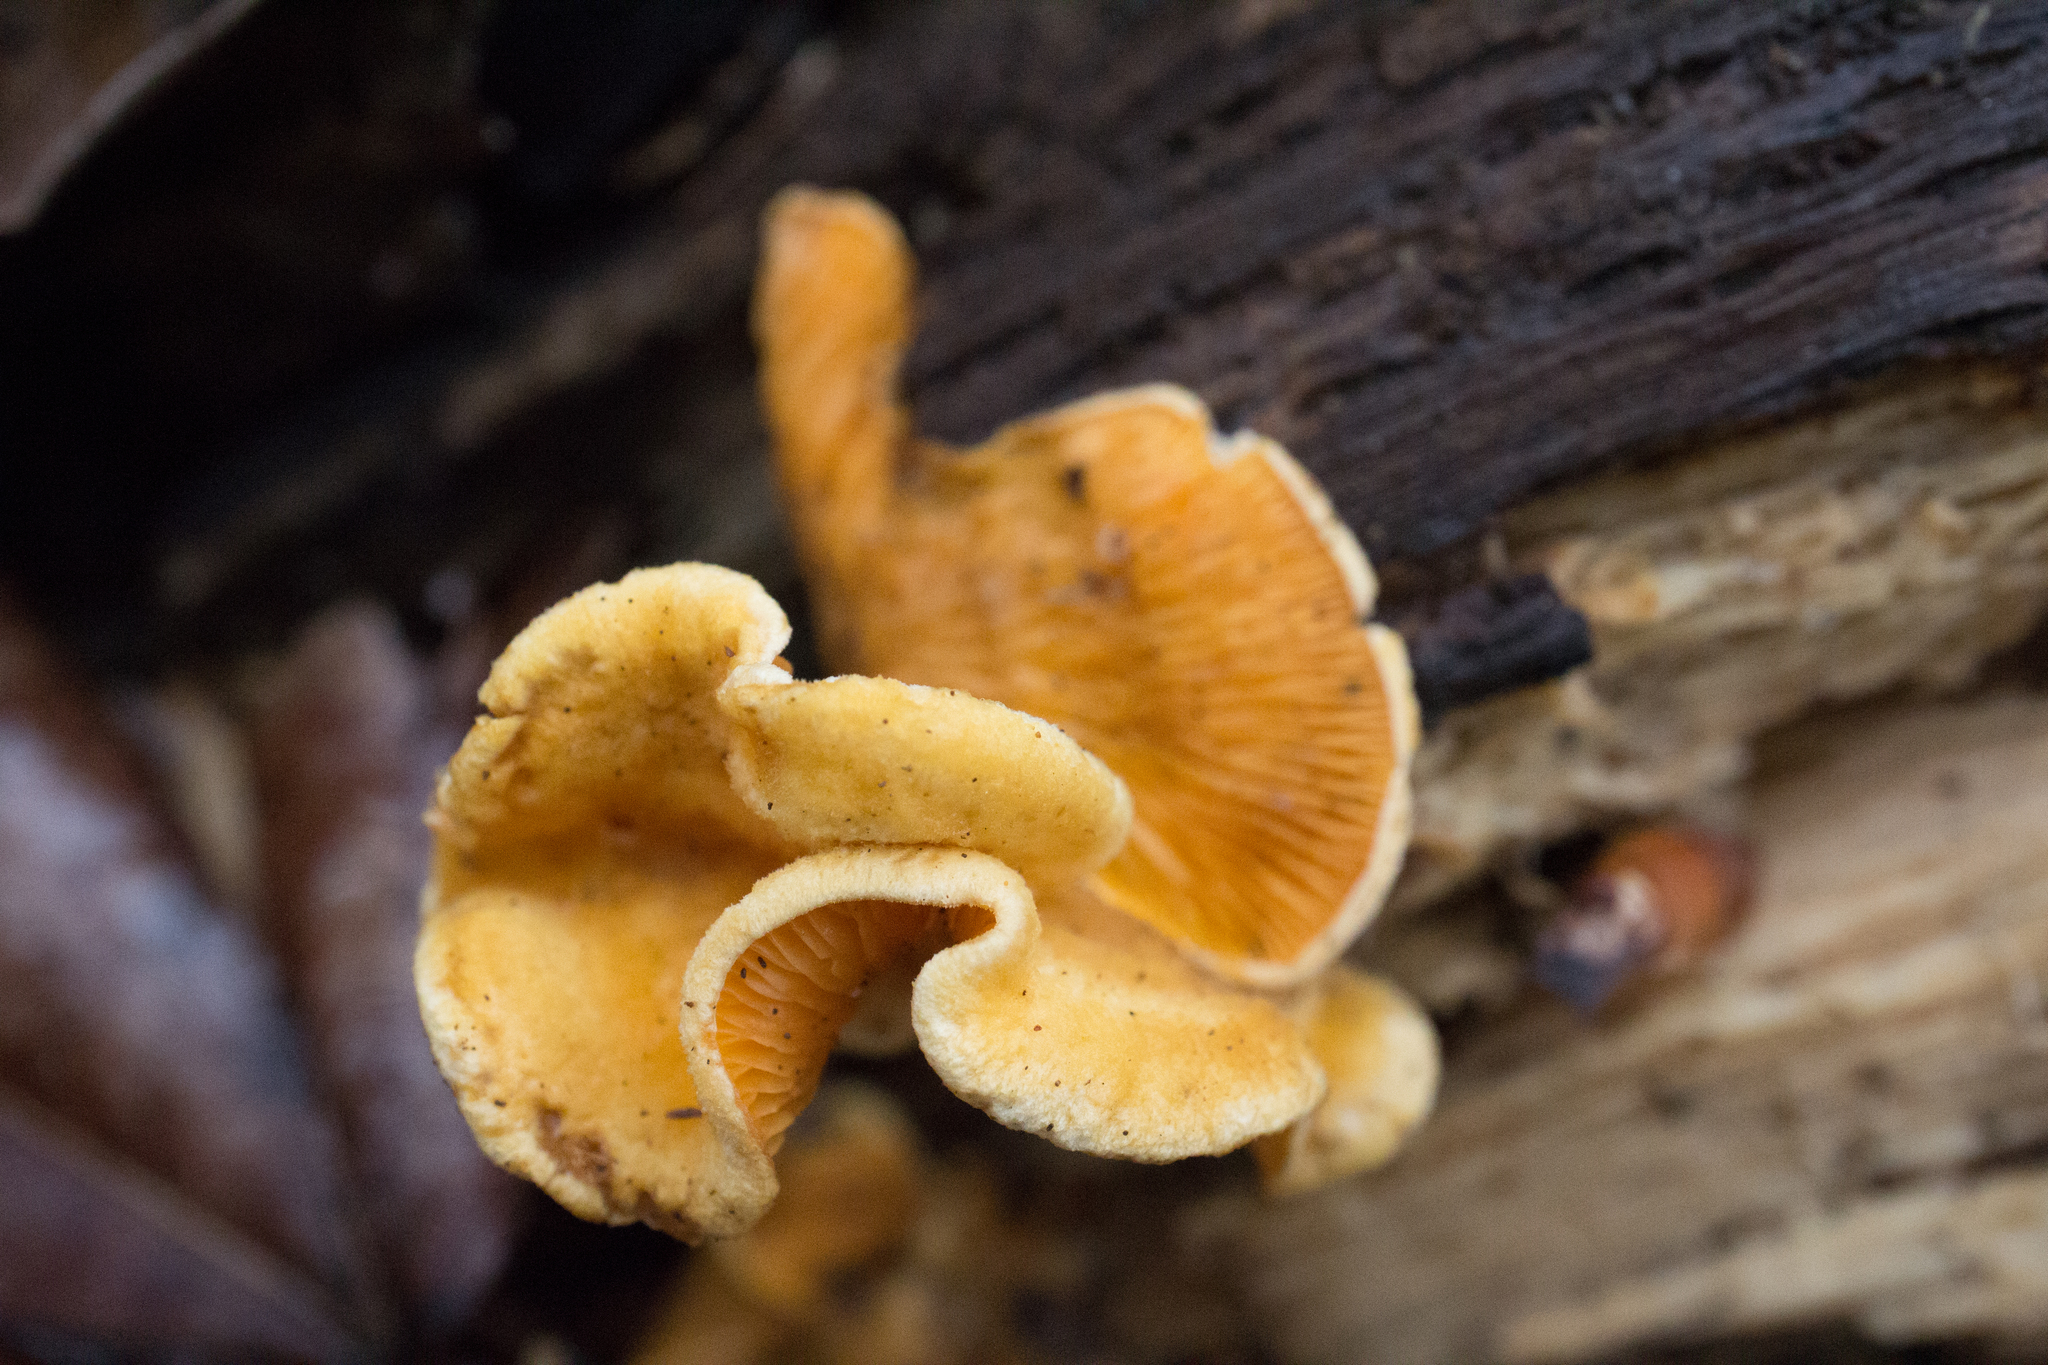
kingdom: Fungi
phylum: Basidiomycota
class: Agaricomycetes
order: Agaricales
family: Phyllotopsidaceae
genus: Phyllotopsis
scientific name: Phyllotopsis nidulans
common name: Orange mock oyster
